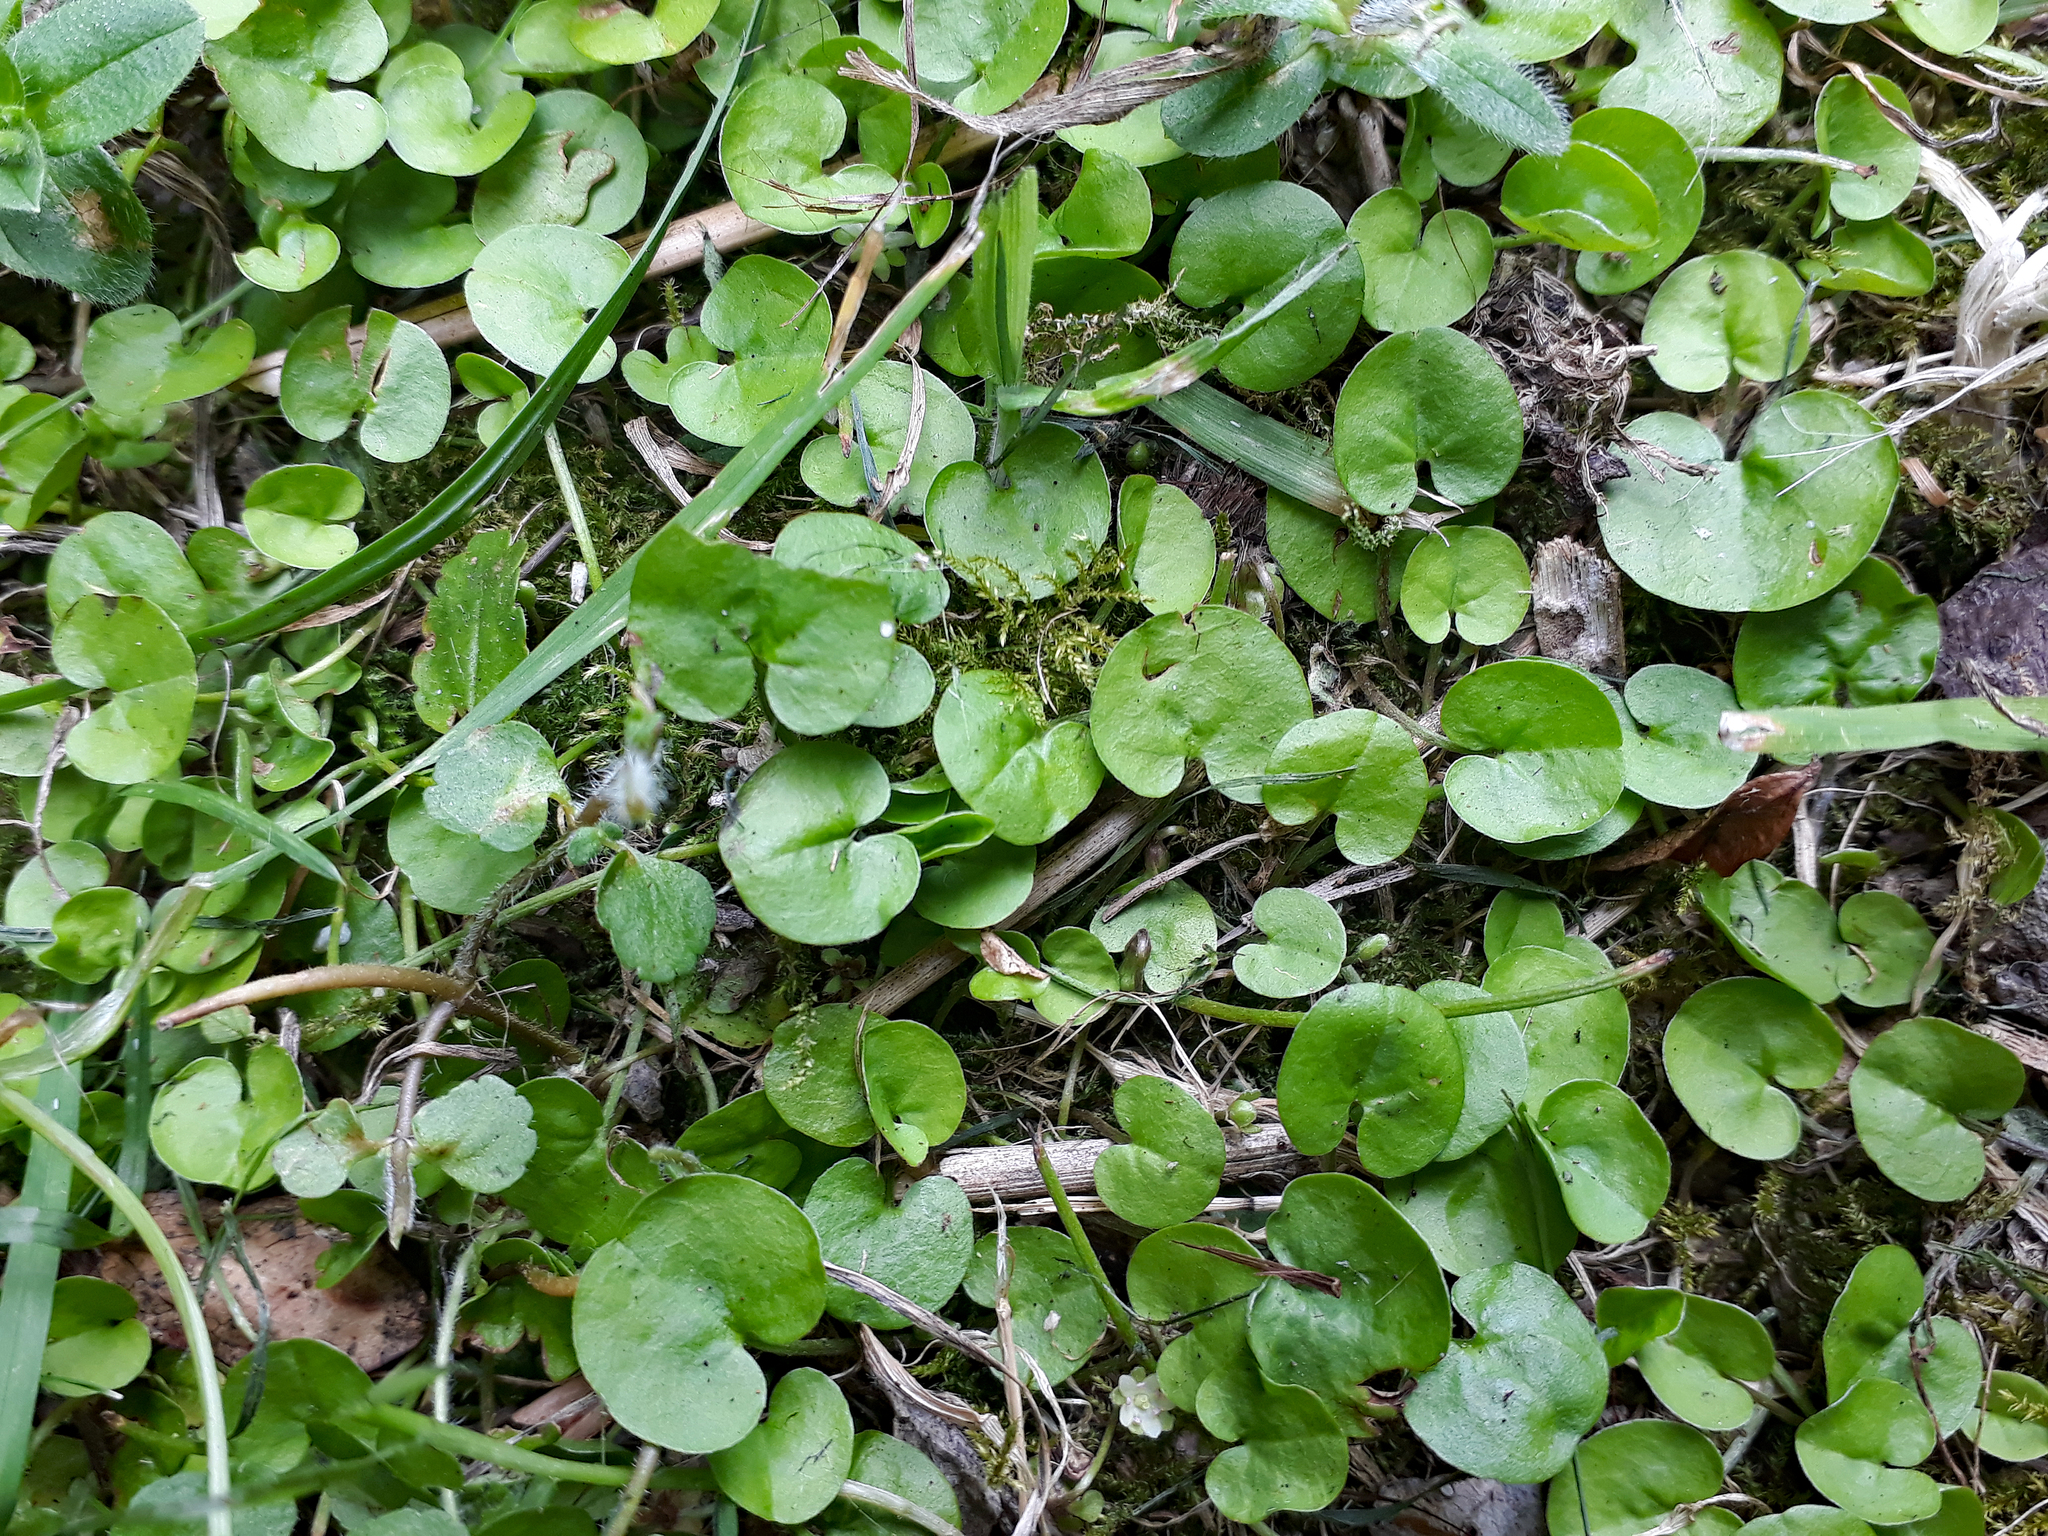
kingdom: Plantae
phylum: Tracheophyta
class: Magnoliopsida
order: Solanales
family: Convolvulaceae
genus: Dichondra
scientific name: Dichondra brevifolia
